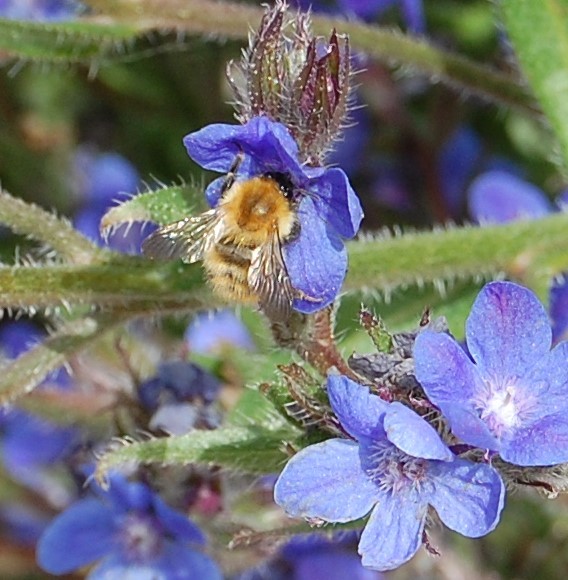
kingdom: Animalia
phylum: Arthropoda
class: Insecta
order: Hymenoptera
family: Apidae
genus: Bombus
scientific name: Bombus pascuorum
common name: Common carder bee
